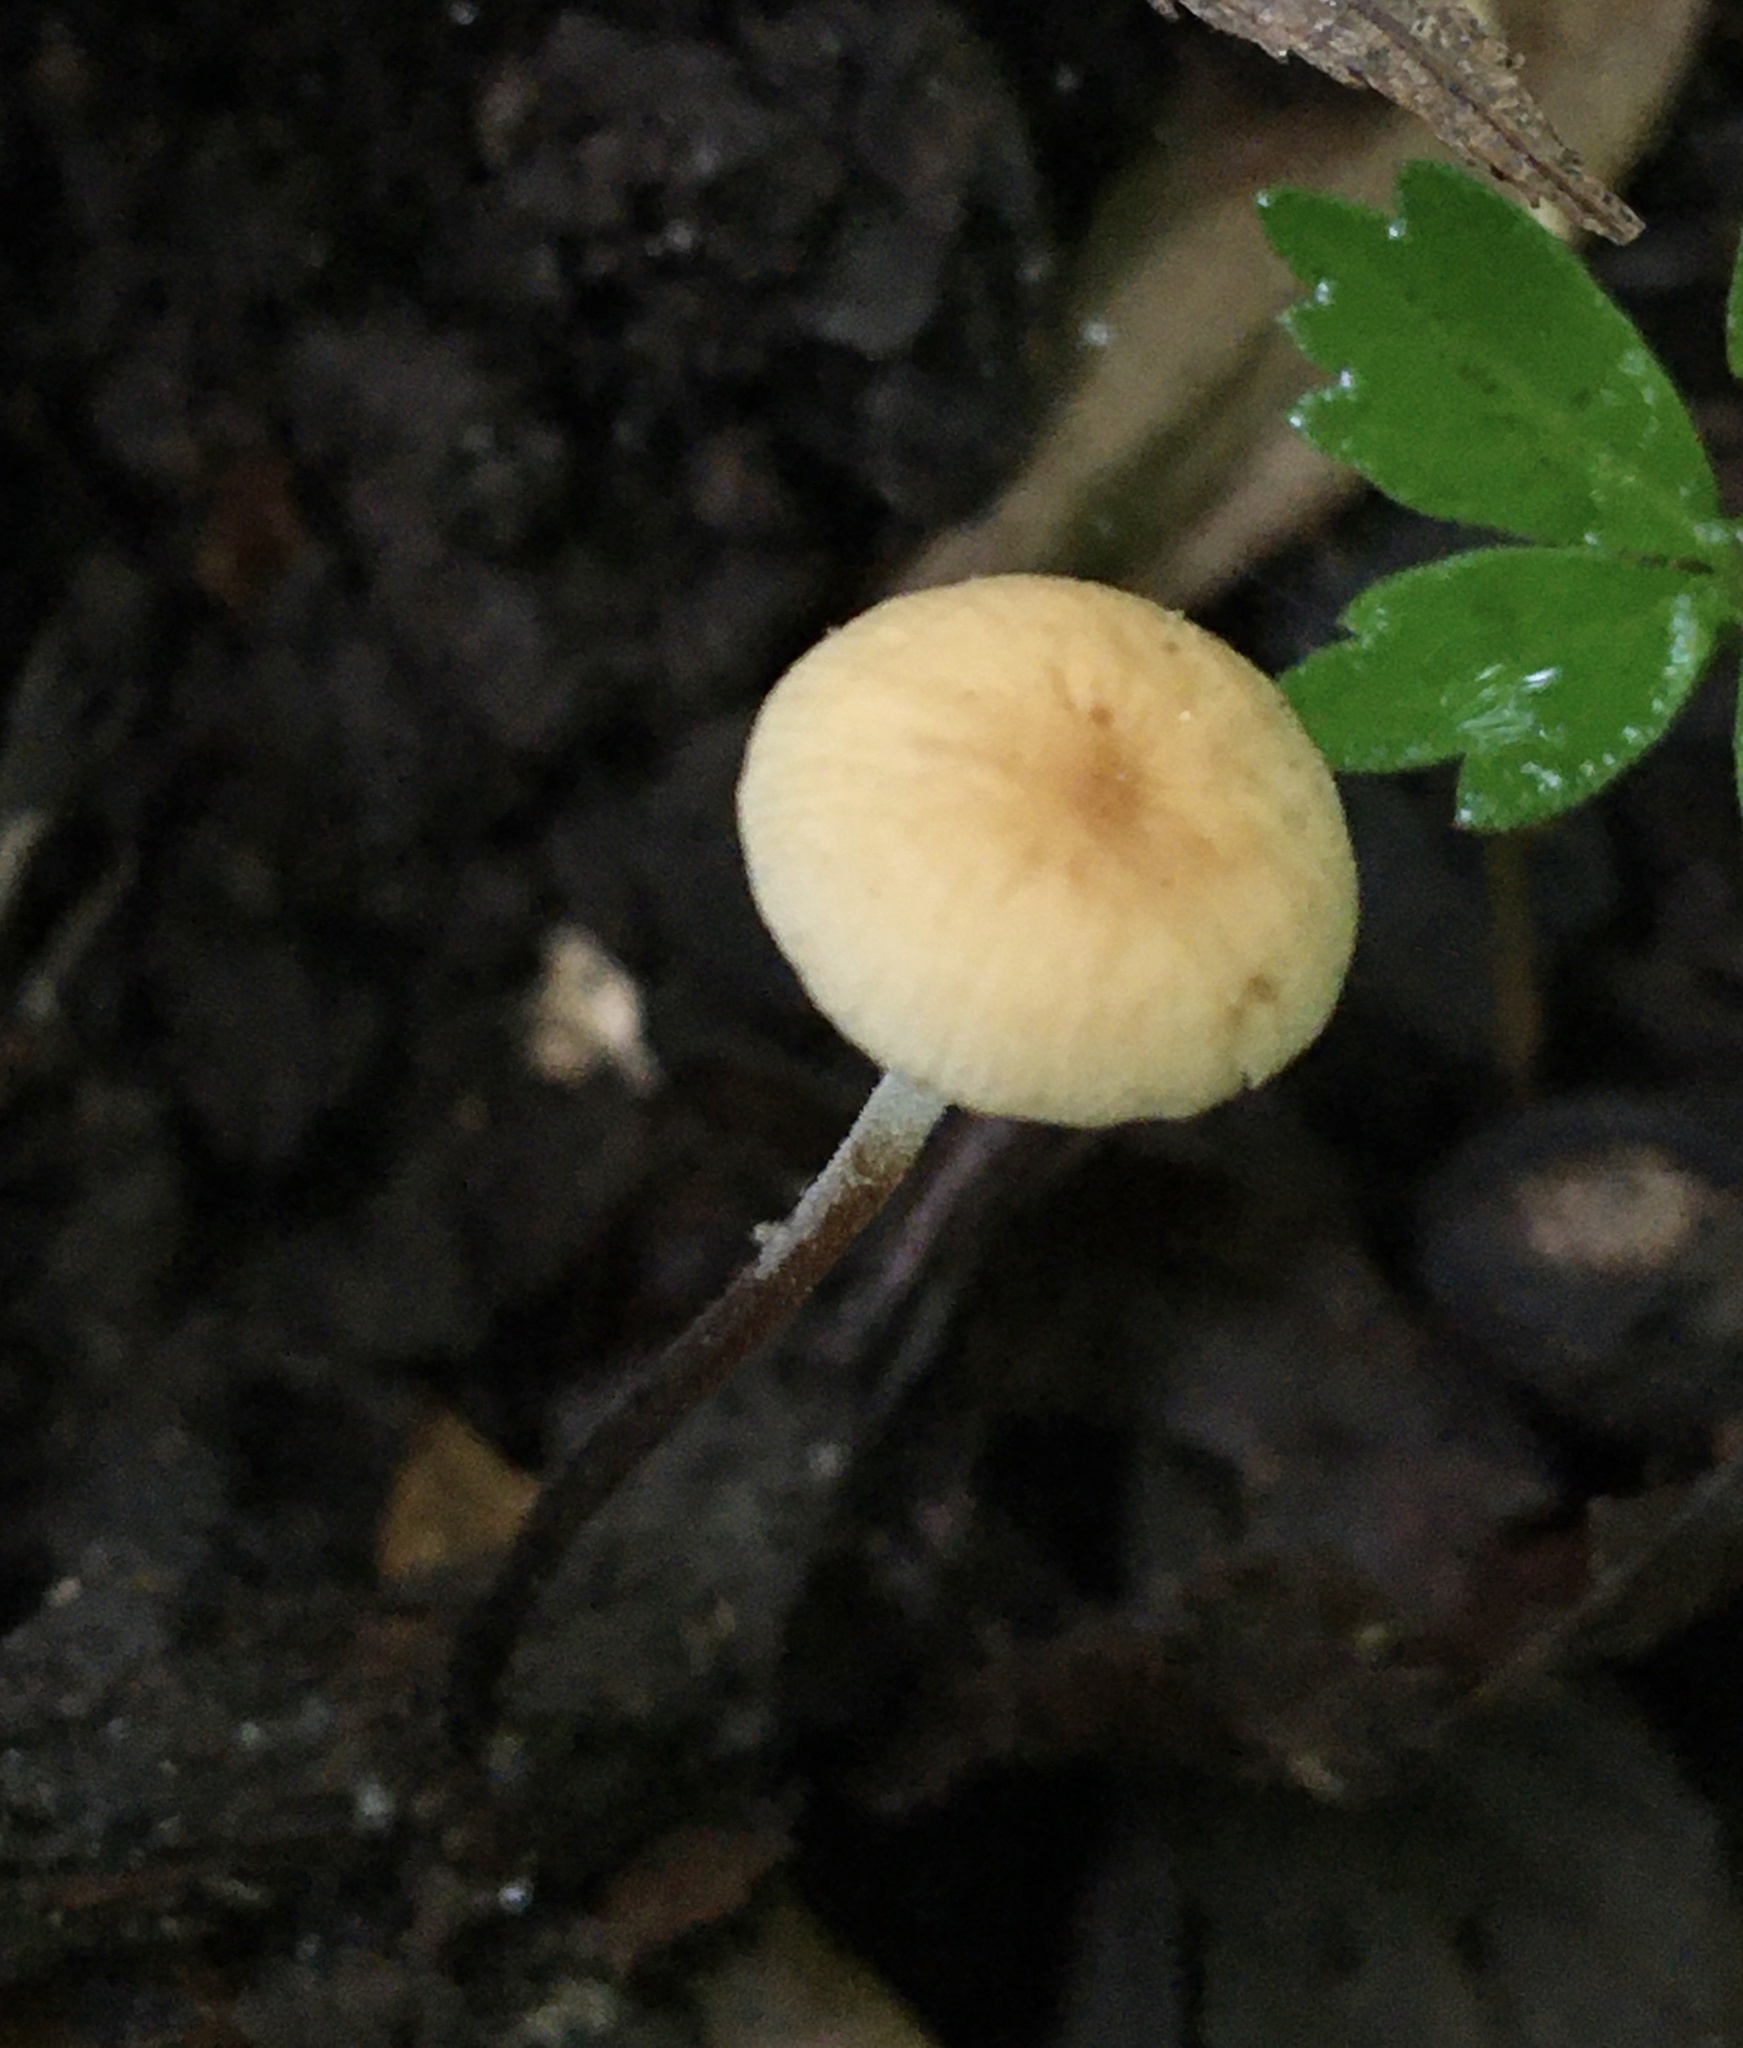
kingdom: Fungi
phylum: Basidiomycota
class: Agaricomycetes
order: Agaricales
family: Physalacriaceae
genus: Rhizomarasmius
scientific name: Rhizomarasmius pyrrhocephalus
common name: Hairy long stem marasmius
